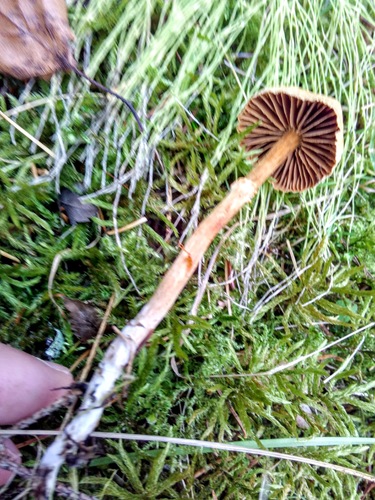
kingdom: Fungi
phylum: Basidiomycota
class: Agaricomycetes
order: Agaricales
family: Cortinariaceae
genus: Cortinarius
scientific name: Cortinarius
